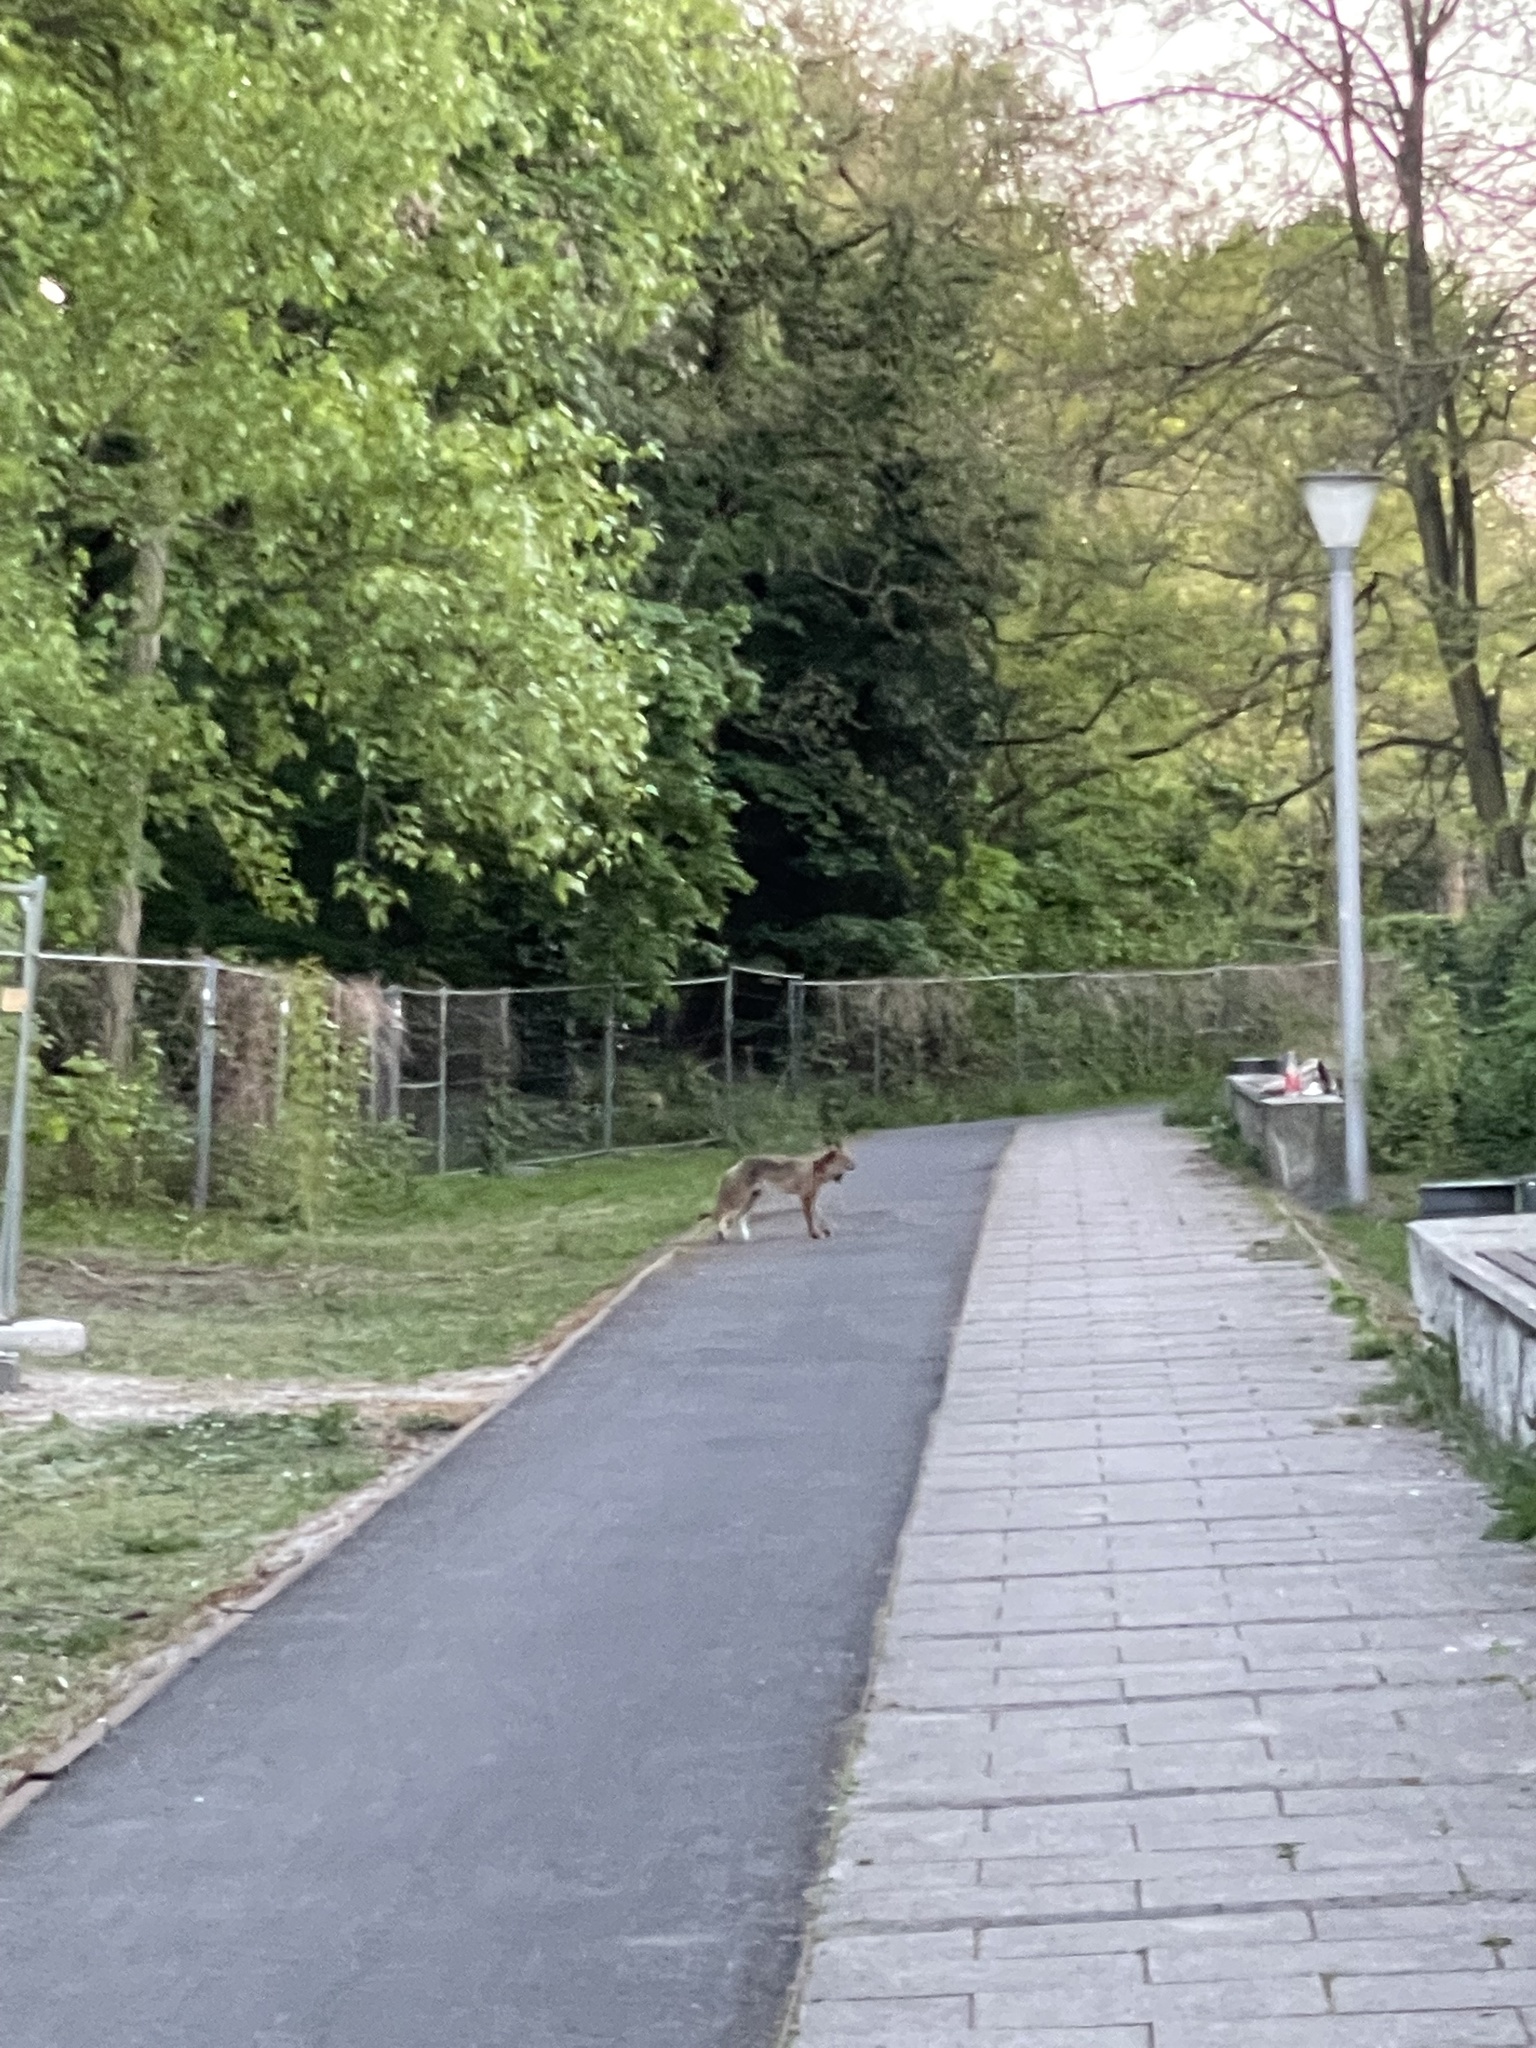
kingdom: Animalia
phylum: Chordata
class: Mammalia
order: Carnivora
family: Canidae
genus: Vulpes
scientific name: Vulpes vulpes
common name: Red fox
